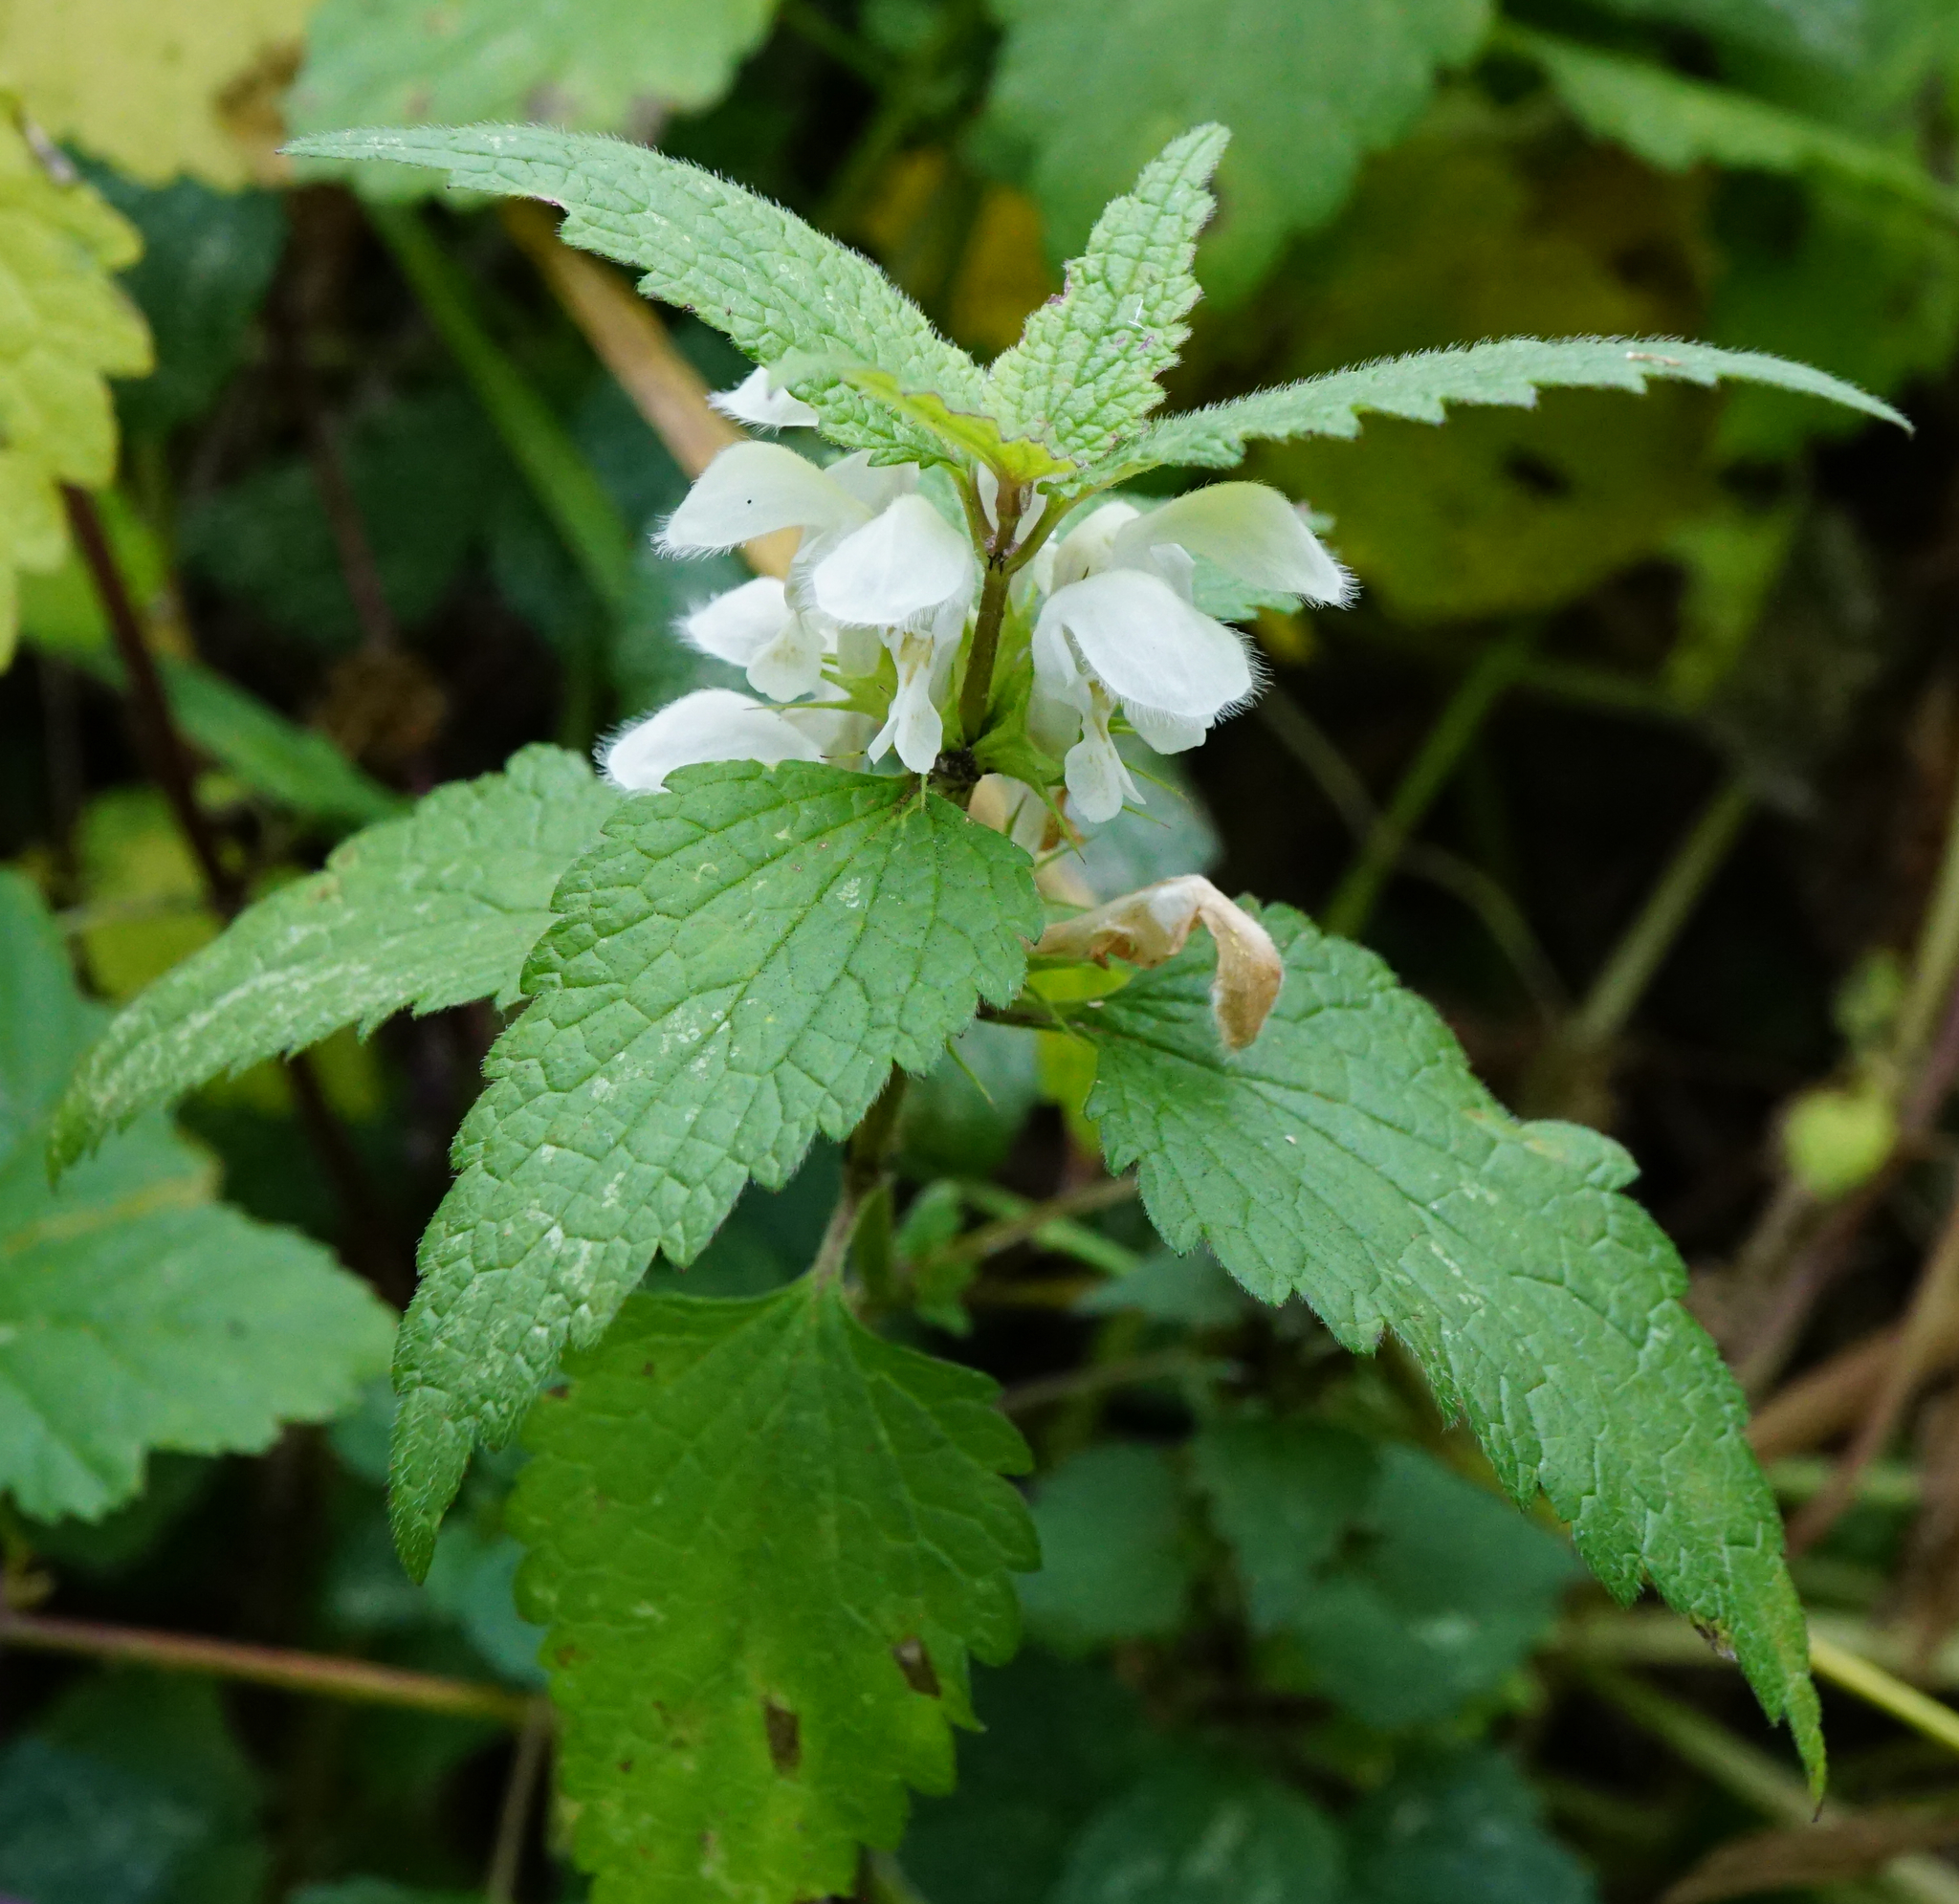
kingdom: Plantae
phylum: Tracheophyta
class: Magnoliopsida
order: Lamiales
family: Lamiaceae
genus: Lamium
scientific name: Lamium album
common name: White dead-nettle
